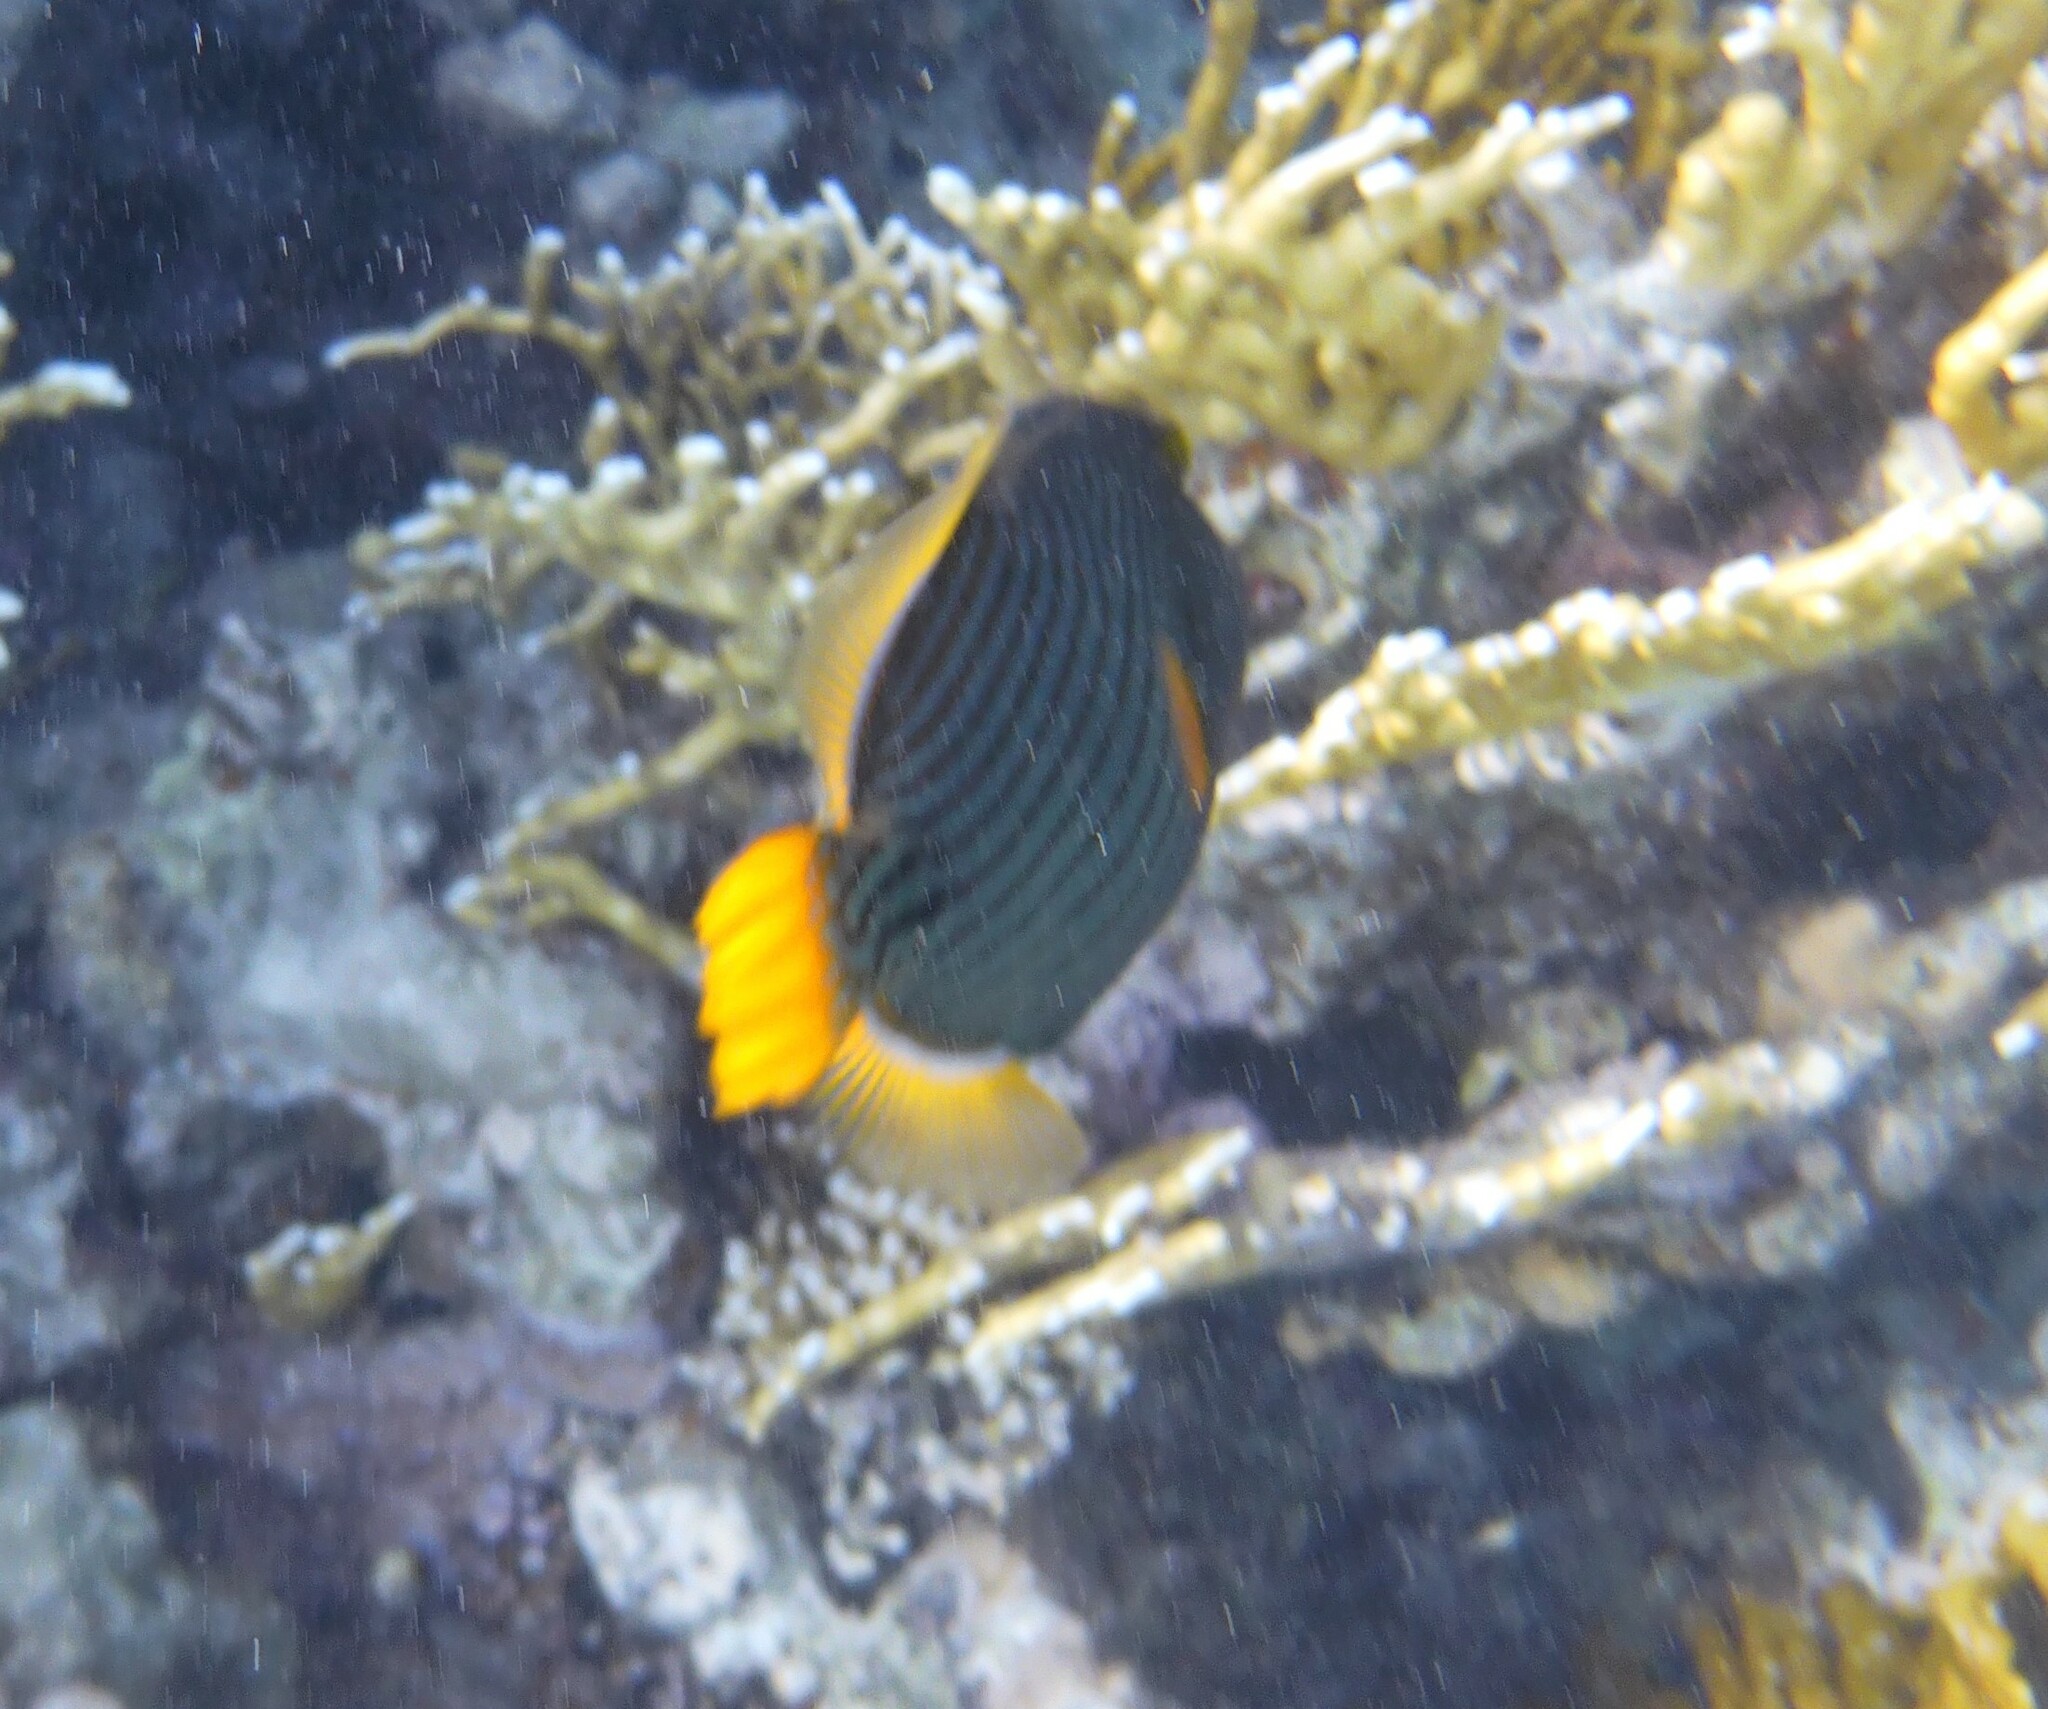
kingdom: Animalia
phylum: Chordata
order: Tetraodontiformes
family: Balistidae
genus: Balistapus
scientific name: Balistapus undulatus
